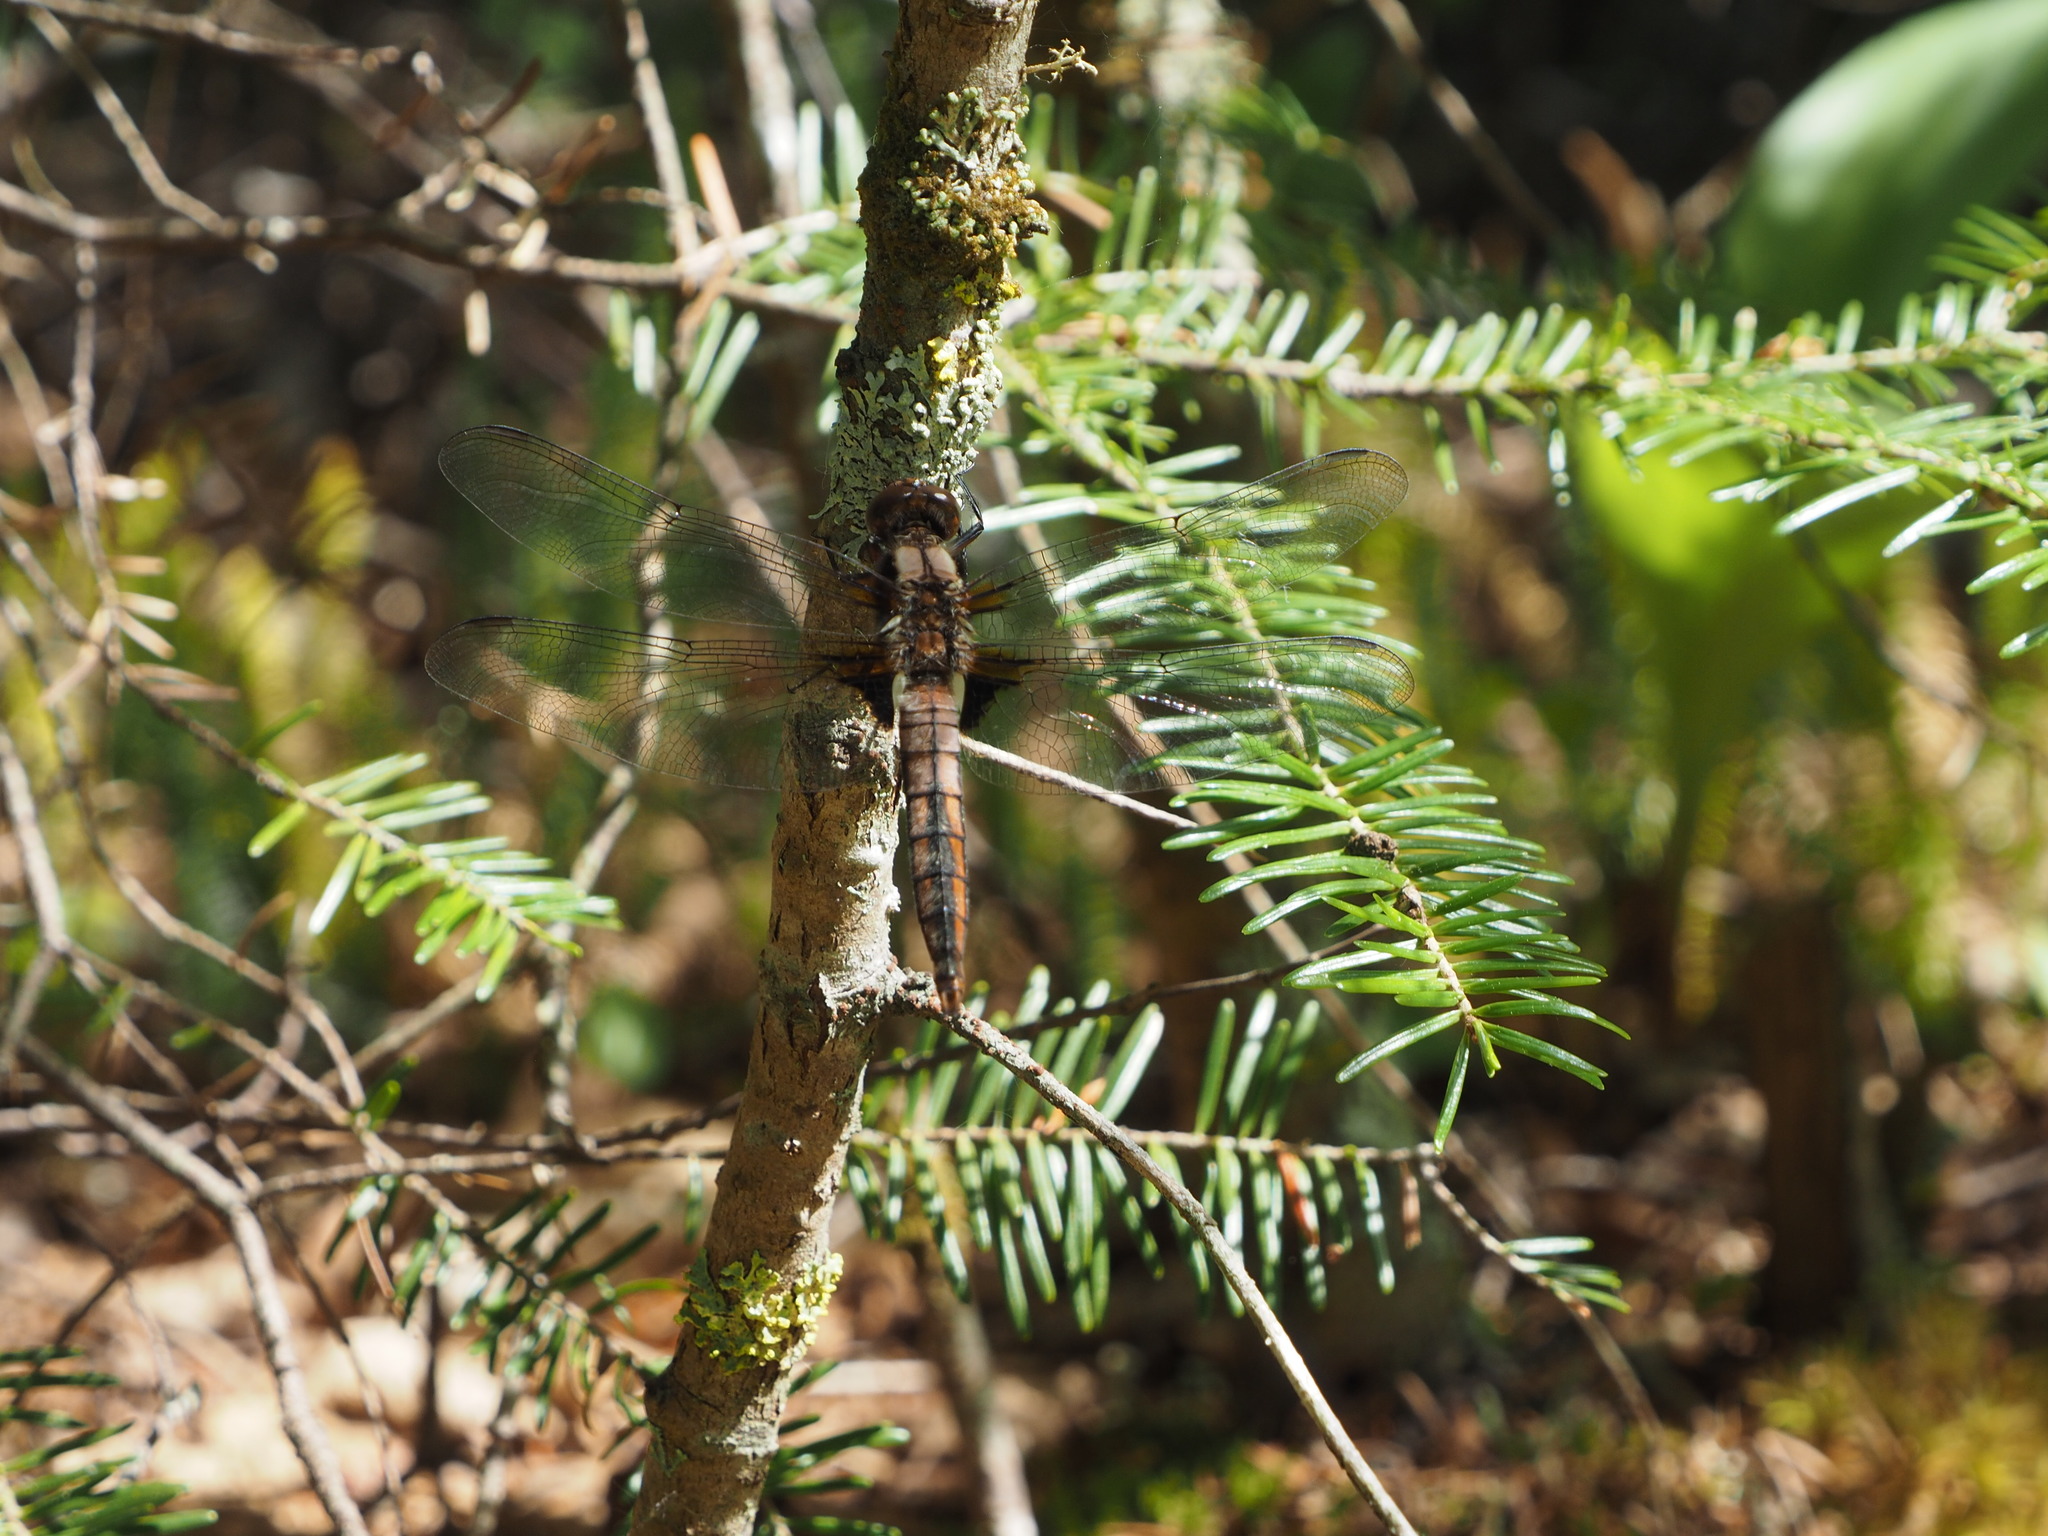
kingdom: Animalia
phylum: Arthropoda
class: Insecta
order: Odonata
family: Libellulidae
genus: Ladona
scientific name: Ladona julia
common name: Chalk-fronted corporal
